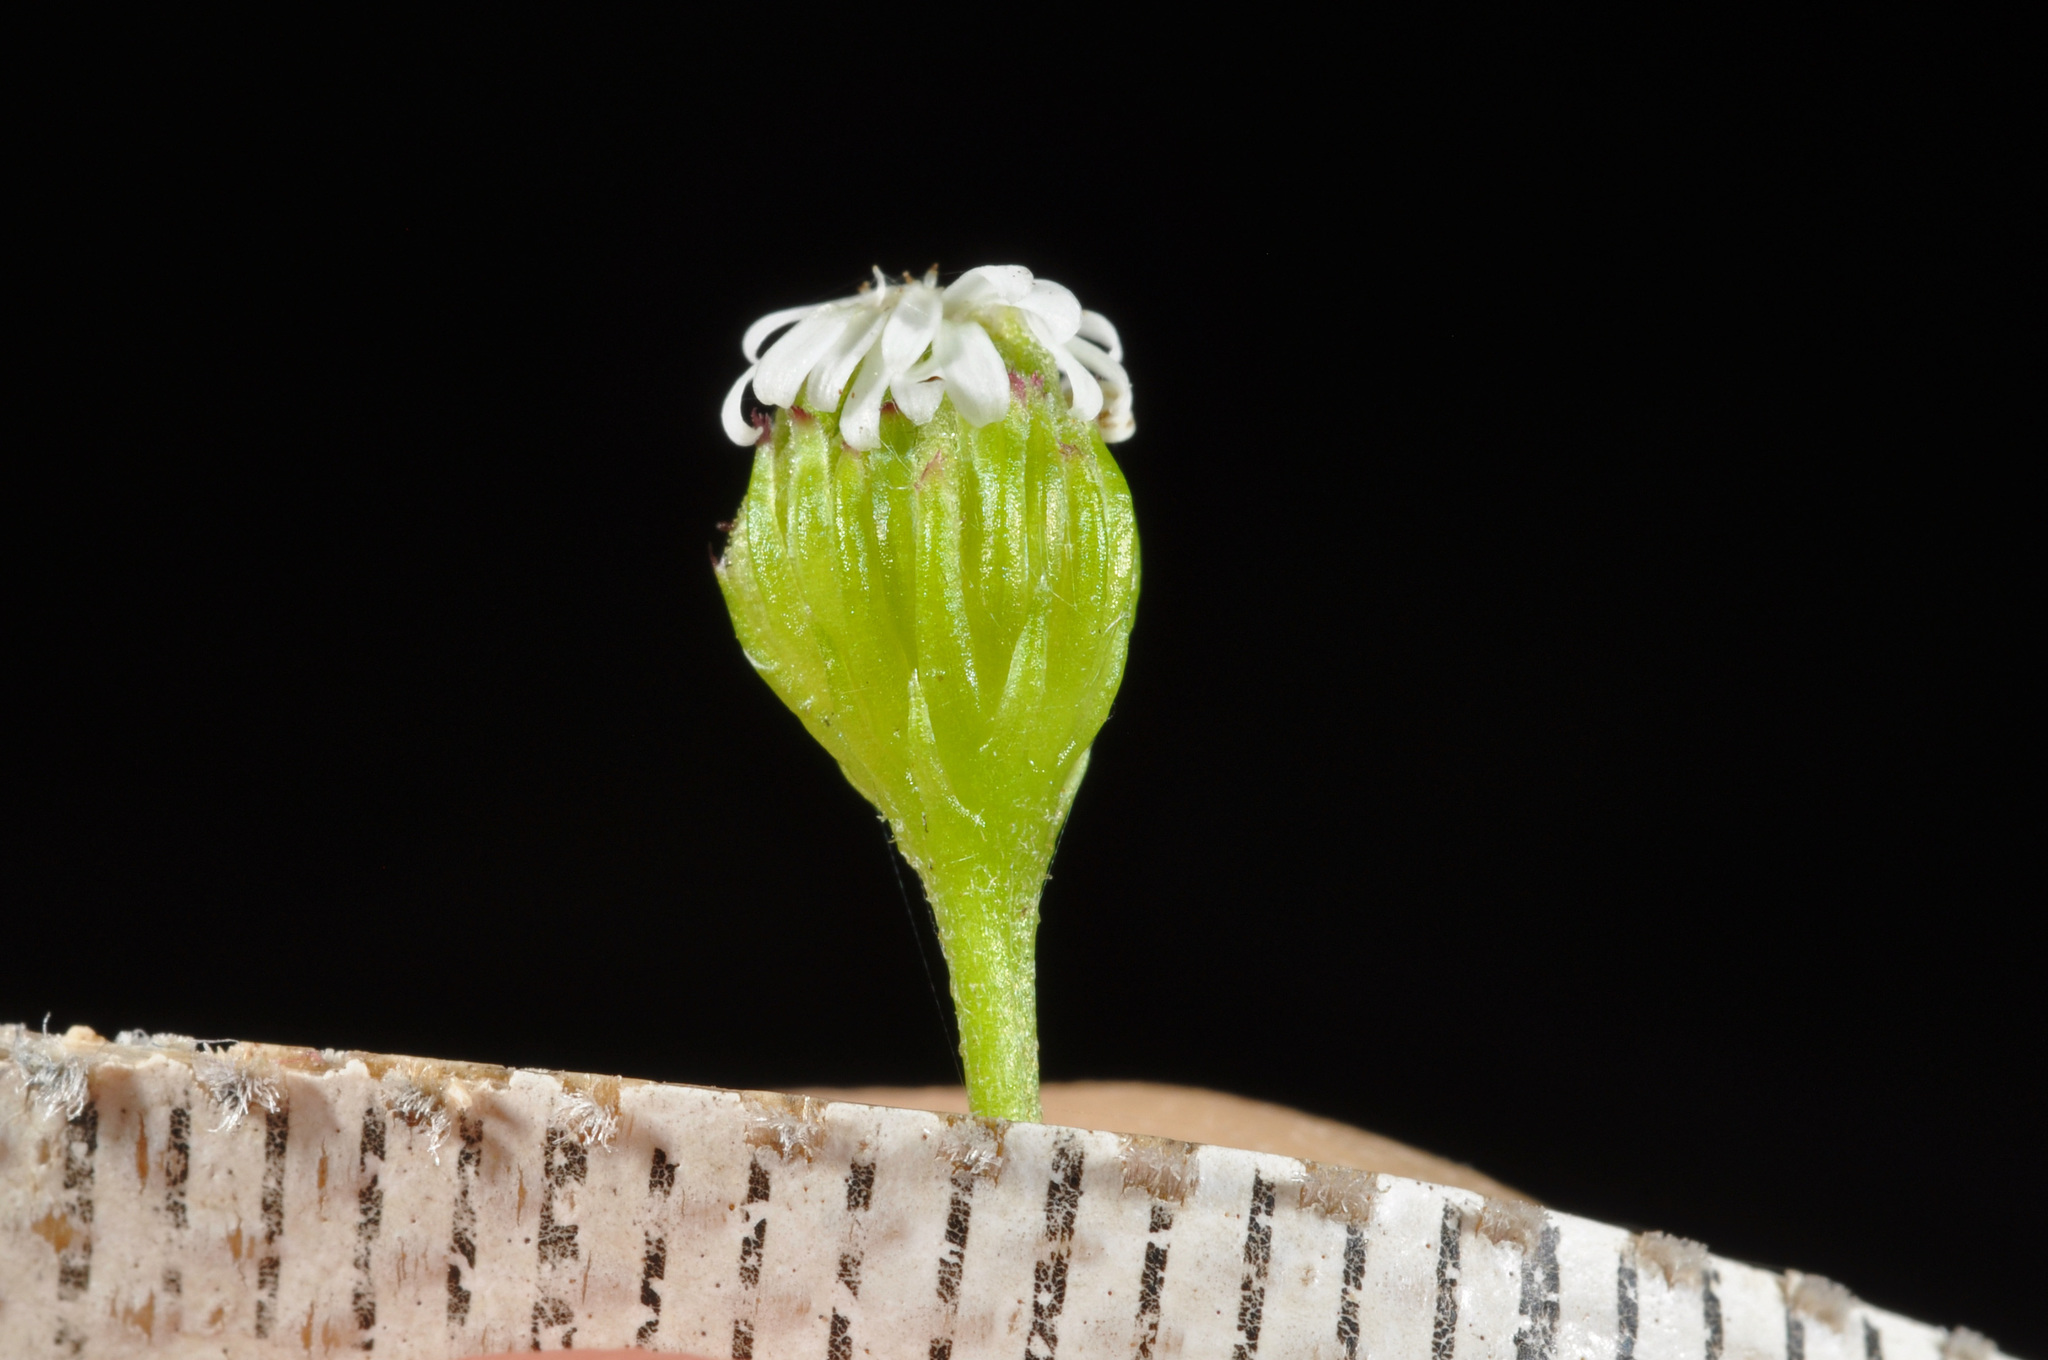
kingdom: Plantae
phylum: Tracheophyta
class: Magnoliopsida
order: Asterales
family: Asteraceae
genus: Lagenophora
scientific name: Lagenophora strangulata
